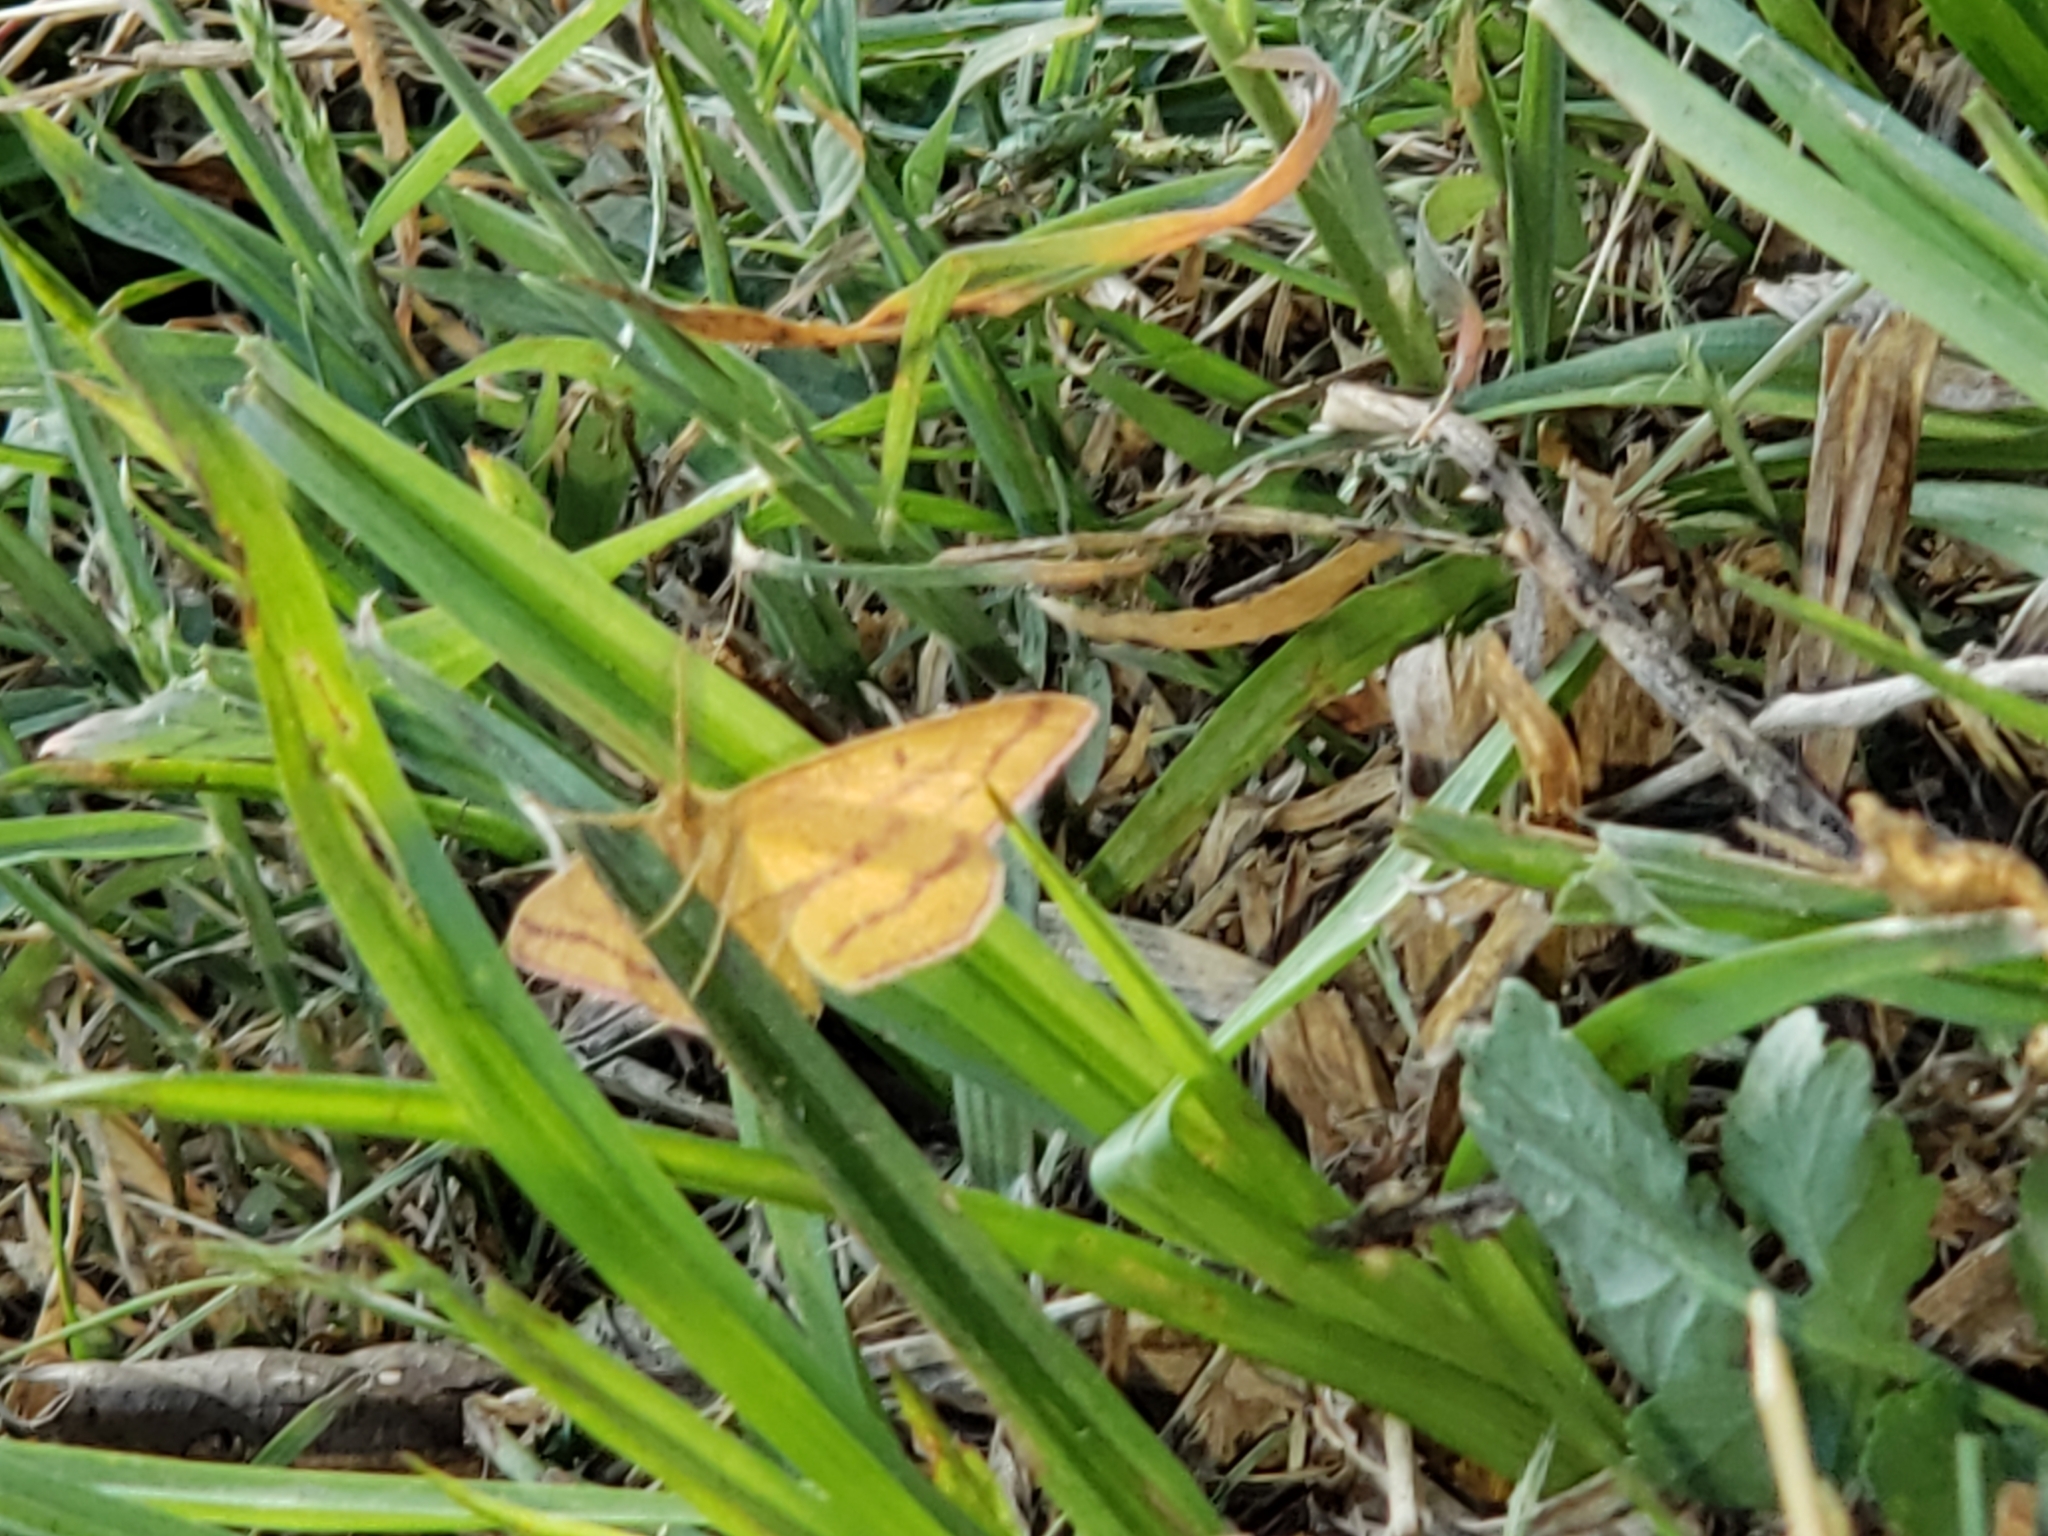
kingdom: Animalia
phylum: Arthropoda
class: Insecta
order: Lepidoptera
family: Geometridae
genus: Haematopis
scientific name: Haematopis grataria
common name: Chickweed geometer
